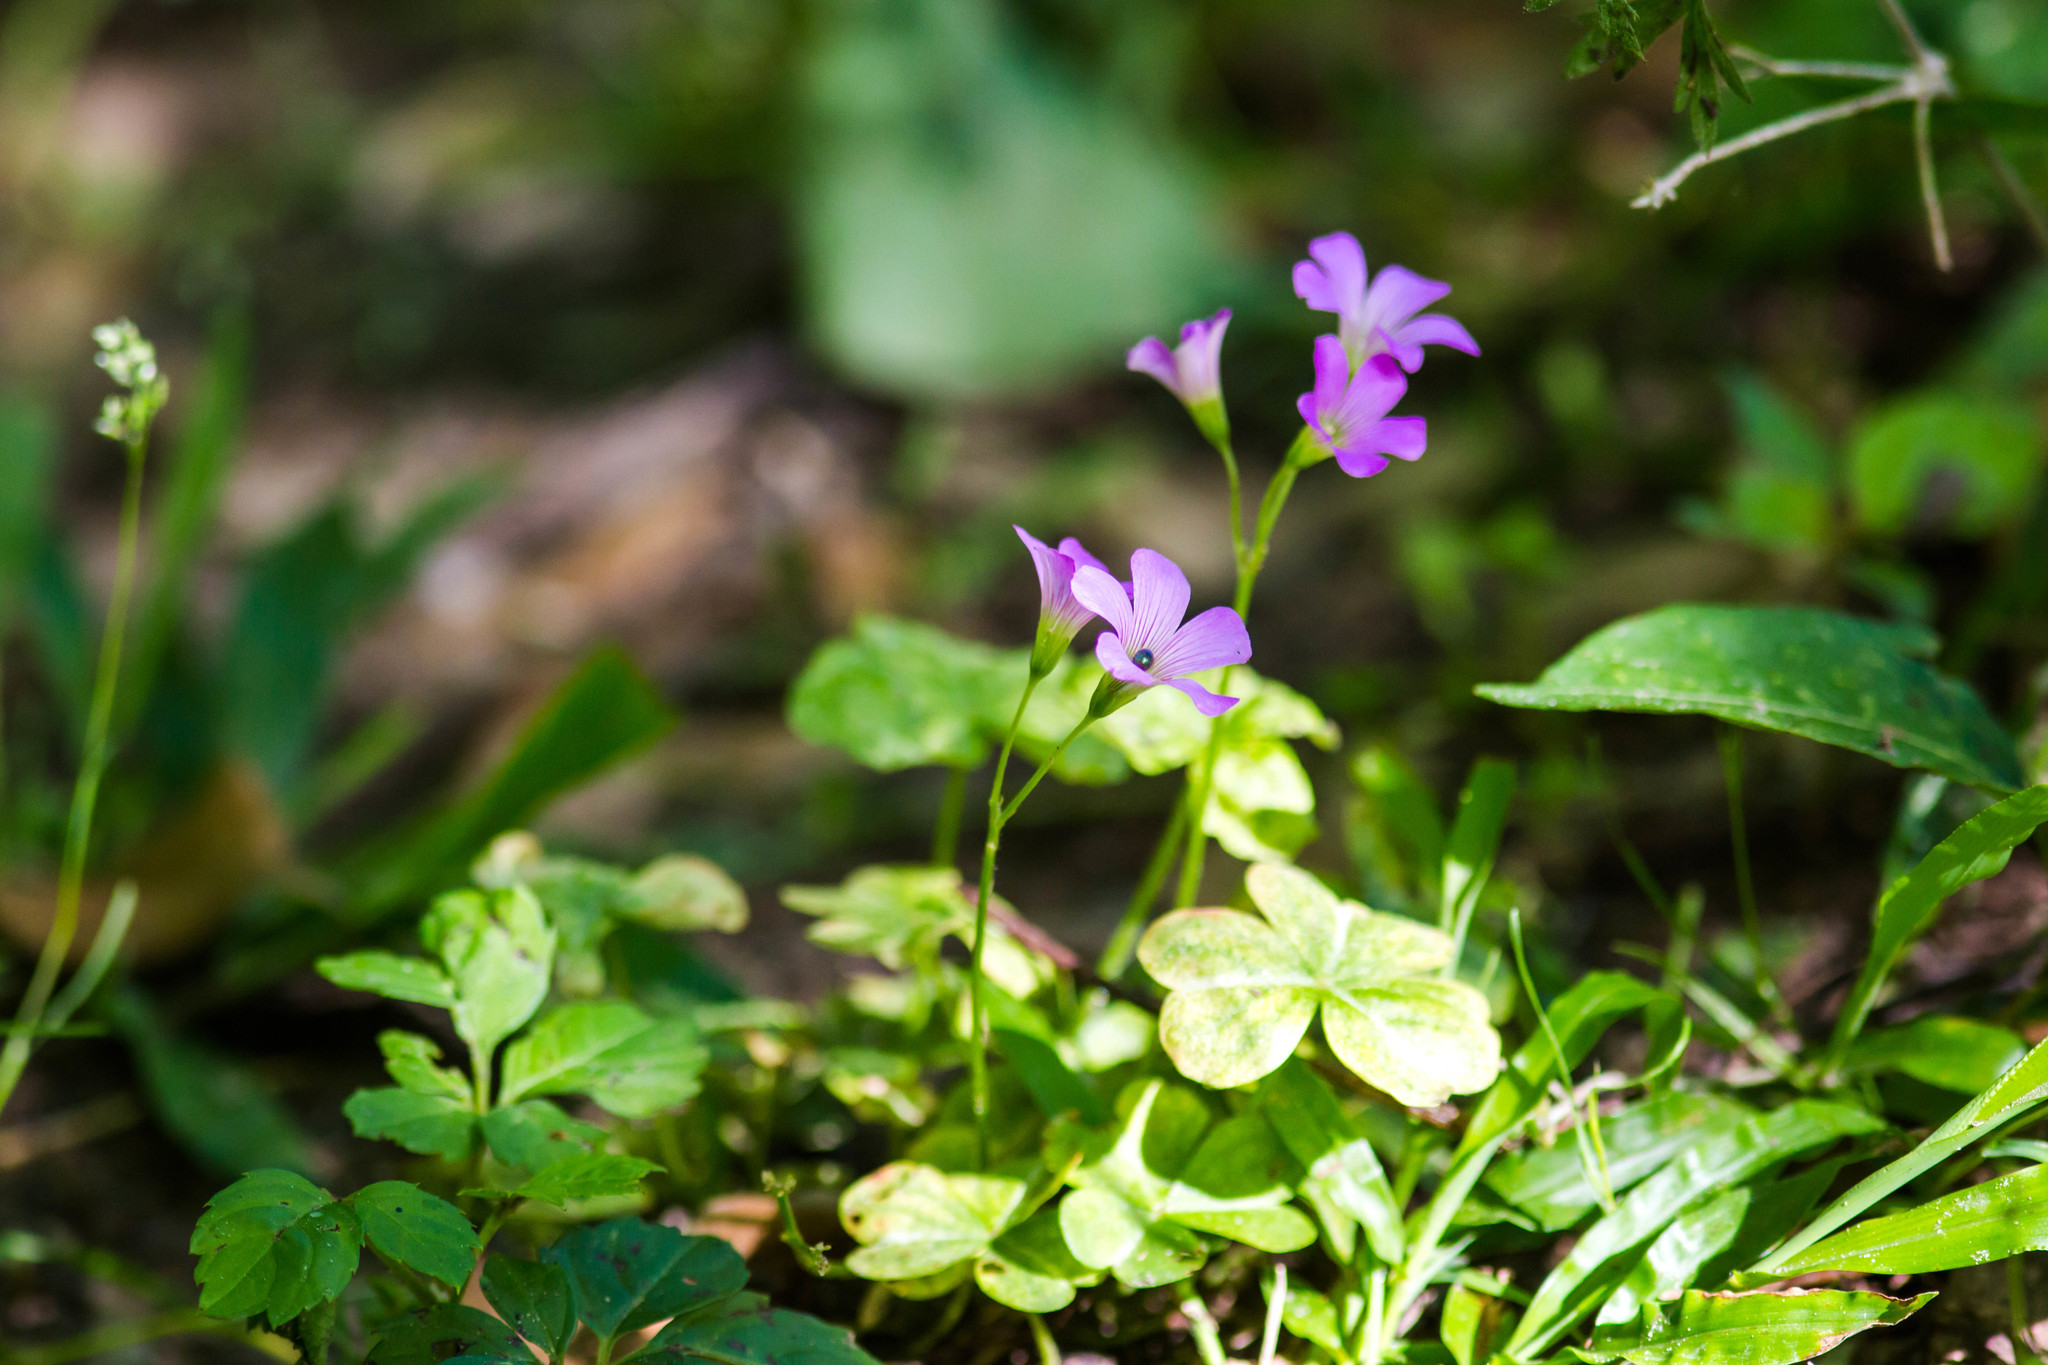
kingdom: Plantae
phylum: Tracheophyta
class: Magnoliopsida
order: Oxalidales
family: Oxalidaceae
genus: Oxalis
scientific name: Oxalis debilis
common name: Large-flowered pink-sorrel
